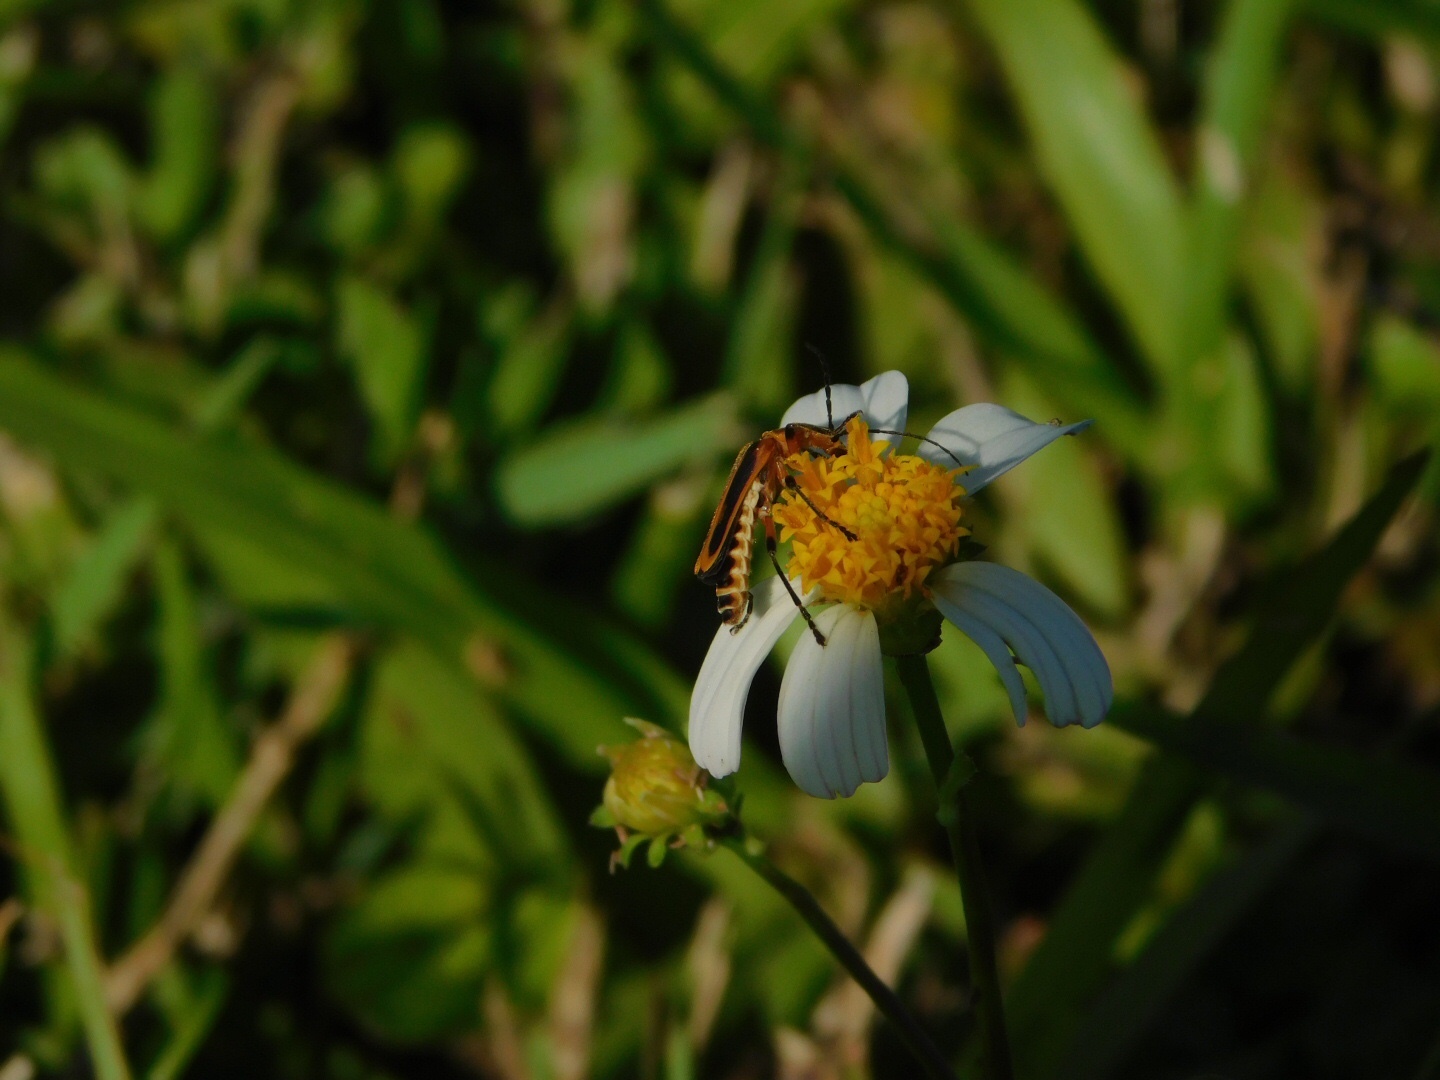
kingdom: Animalia
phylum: Arthropoda
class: Insecta
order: Coleoptera
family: Cantharidae
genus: Chauliognathus
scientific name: Chauliognathus marginatus
